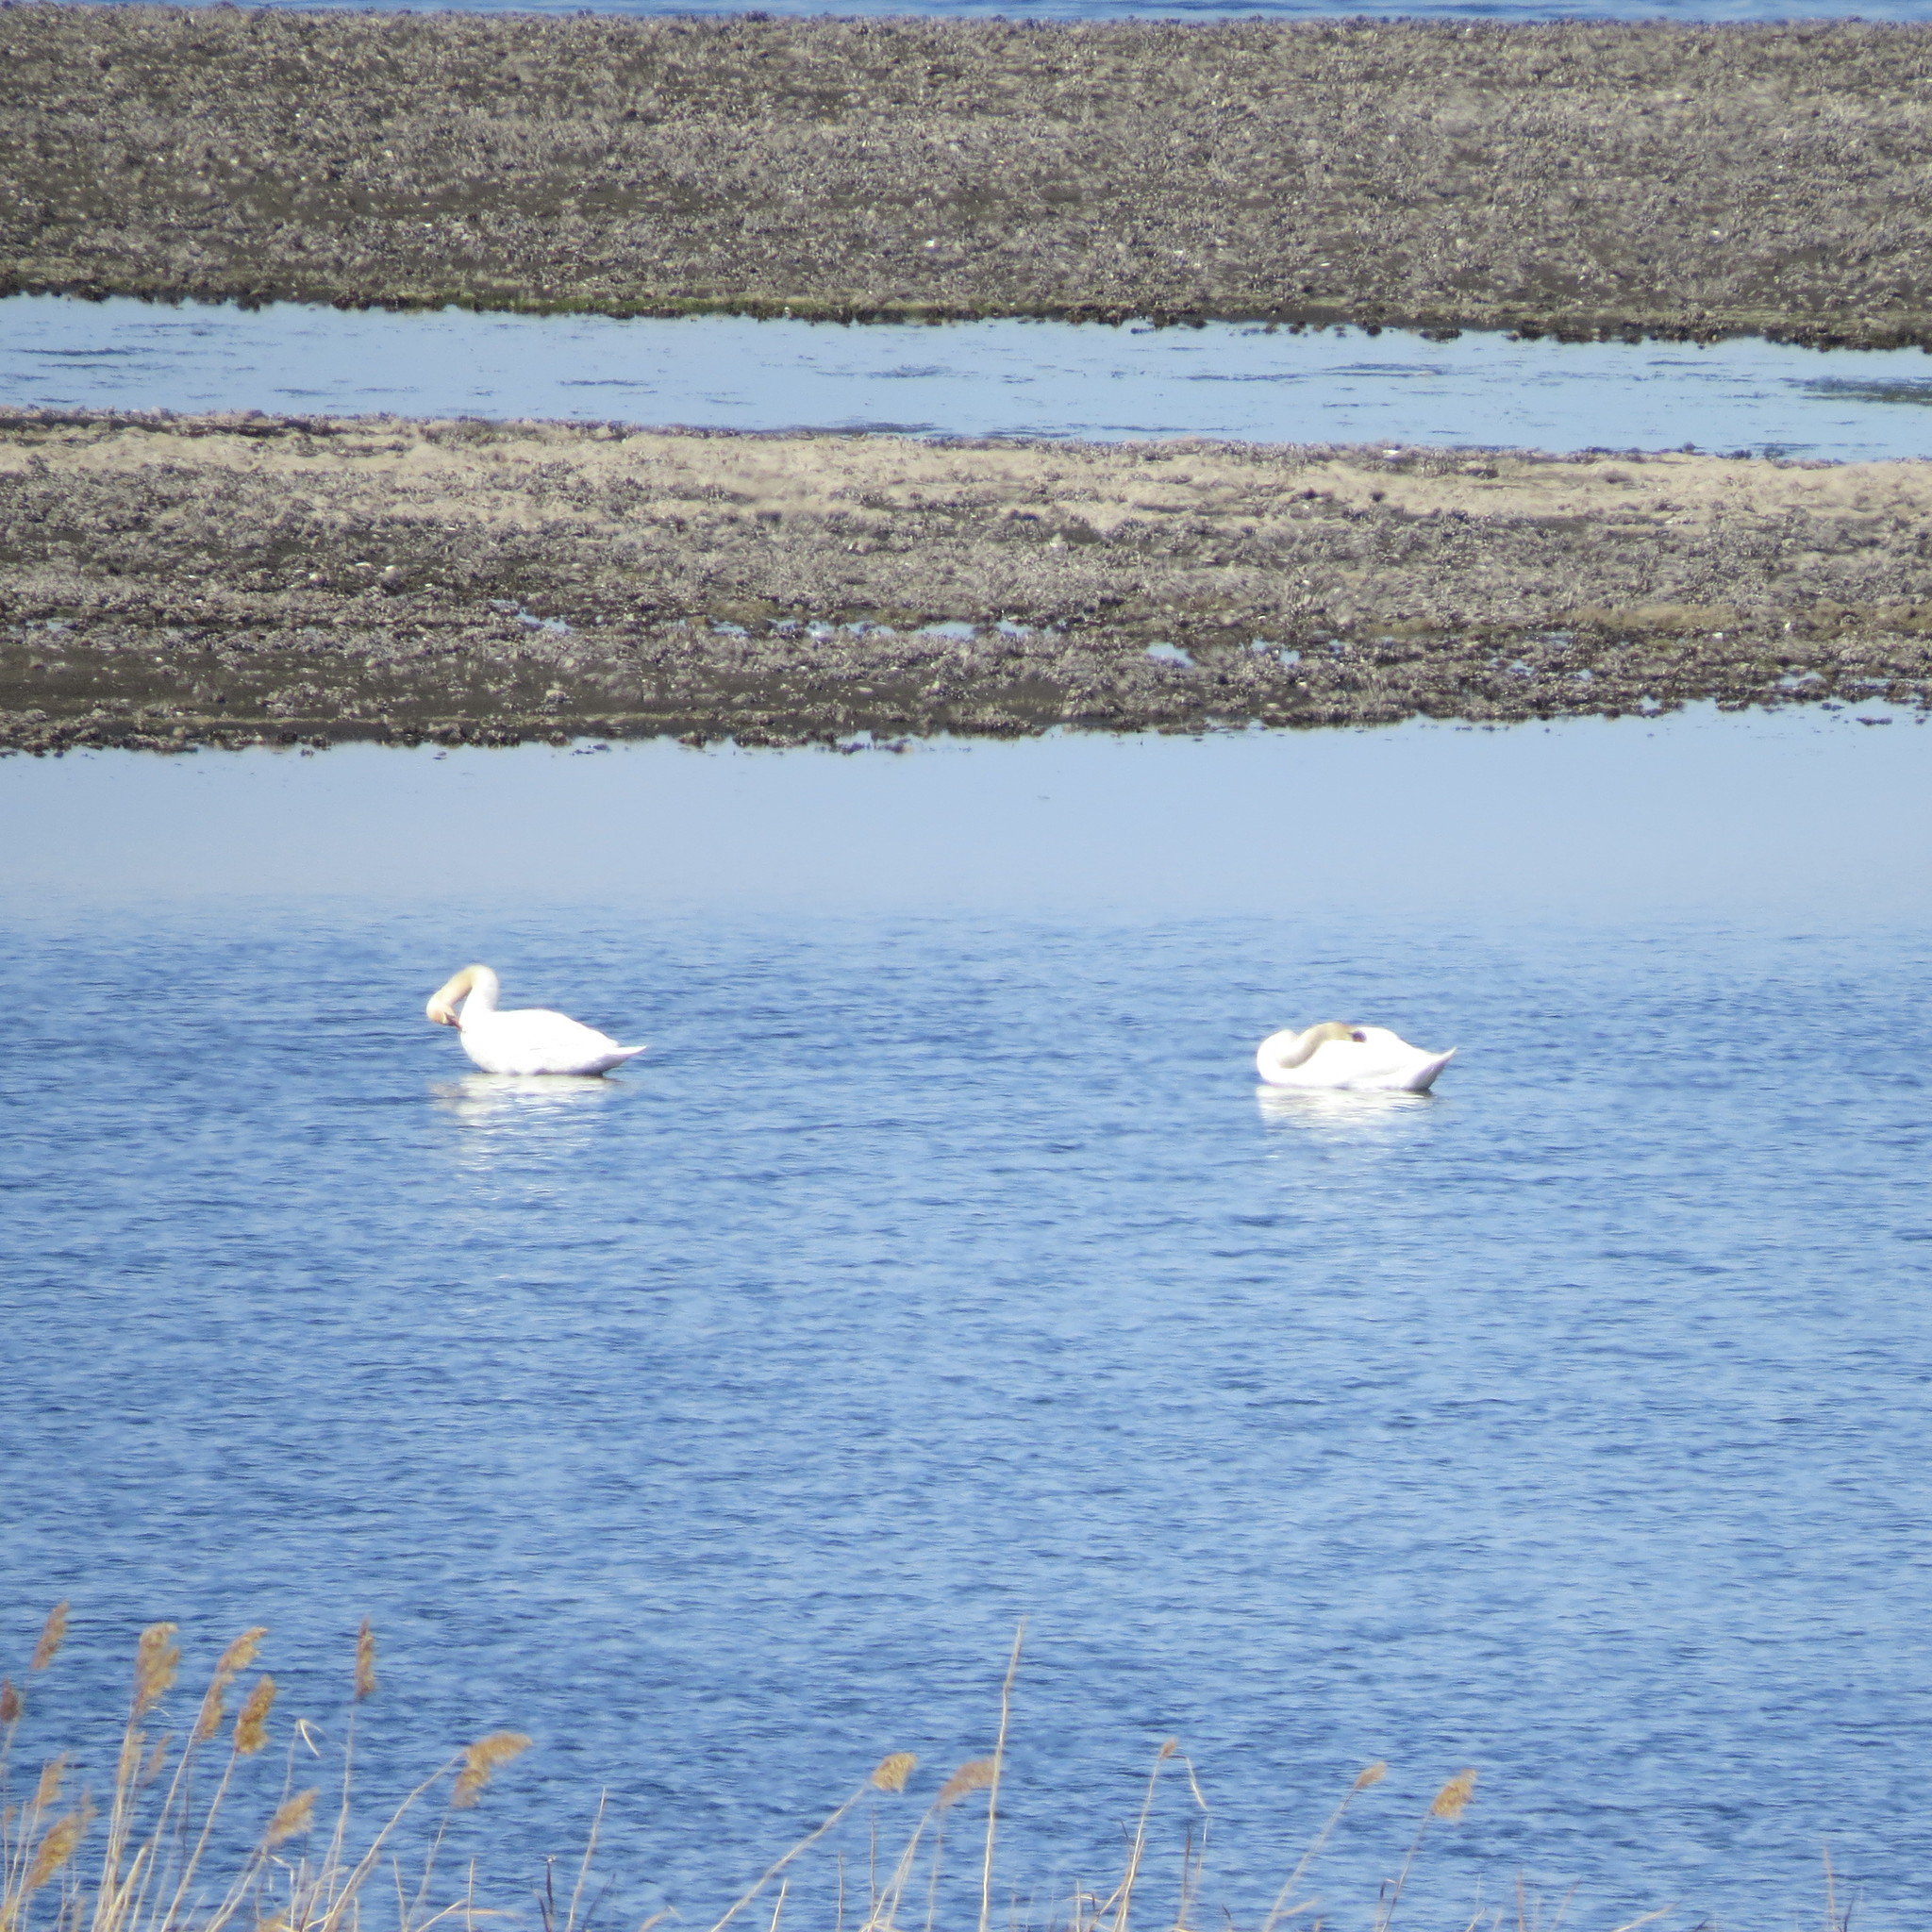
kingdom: Animalia
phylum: Chordata
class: Aves
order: Anseriformes
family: Anatidae
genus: Cygnus
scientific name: Cygnus olor
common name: Mute swan
